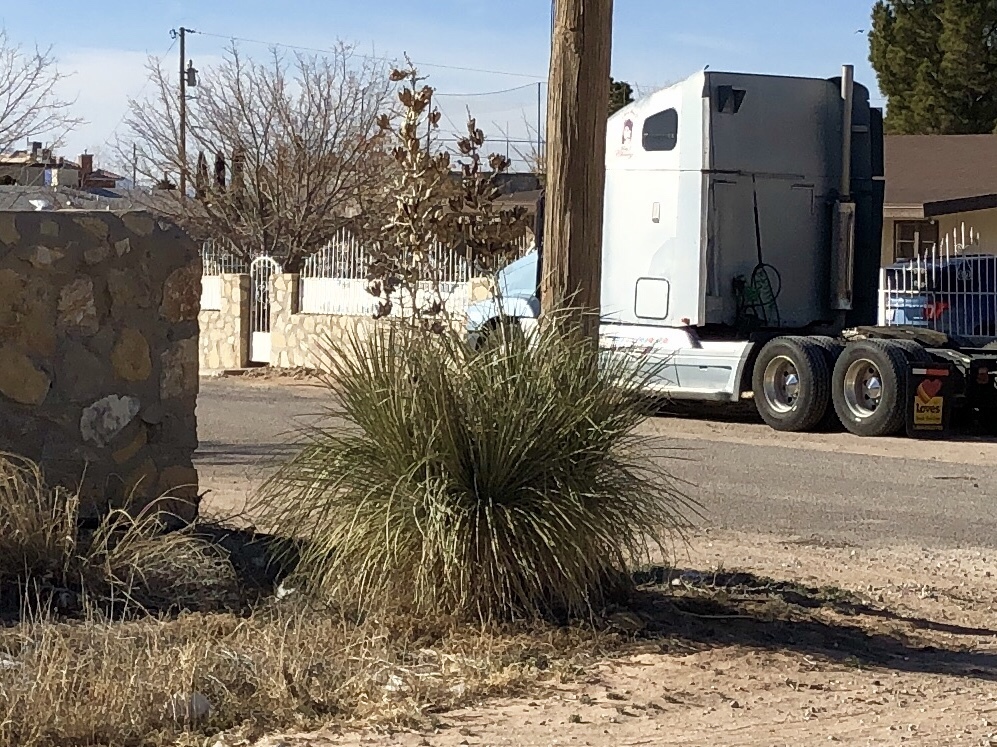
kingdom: Plantae
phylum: Tracheophyta
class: Liliopsida
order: Asparagales
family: Asparagaceae
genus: Yucca
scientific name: Yucca elata
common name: Palmella
